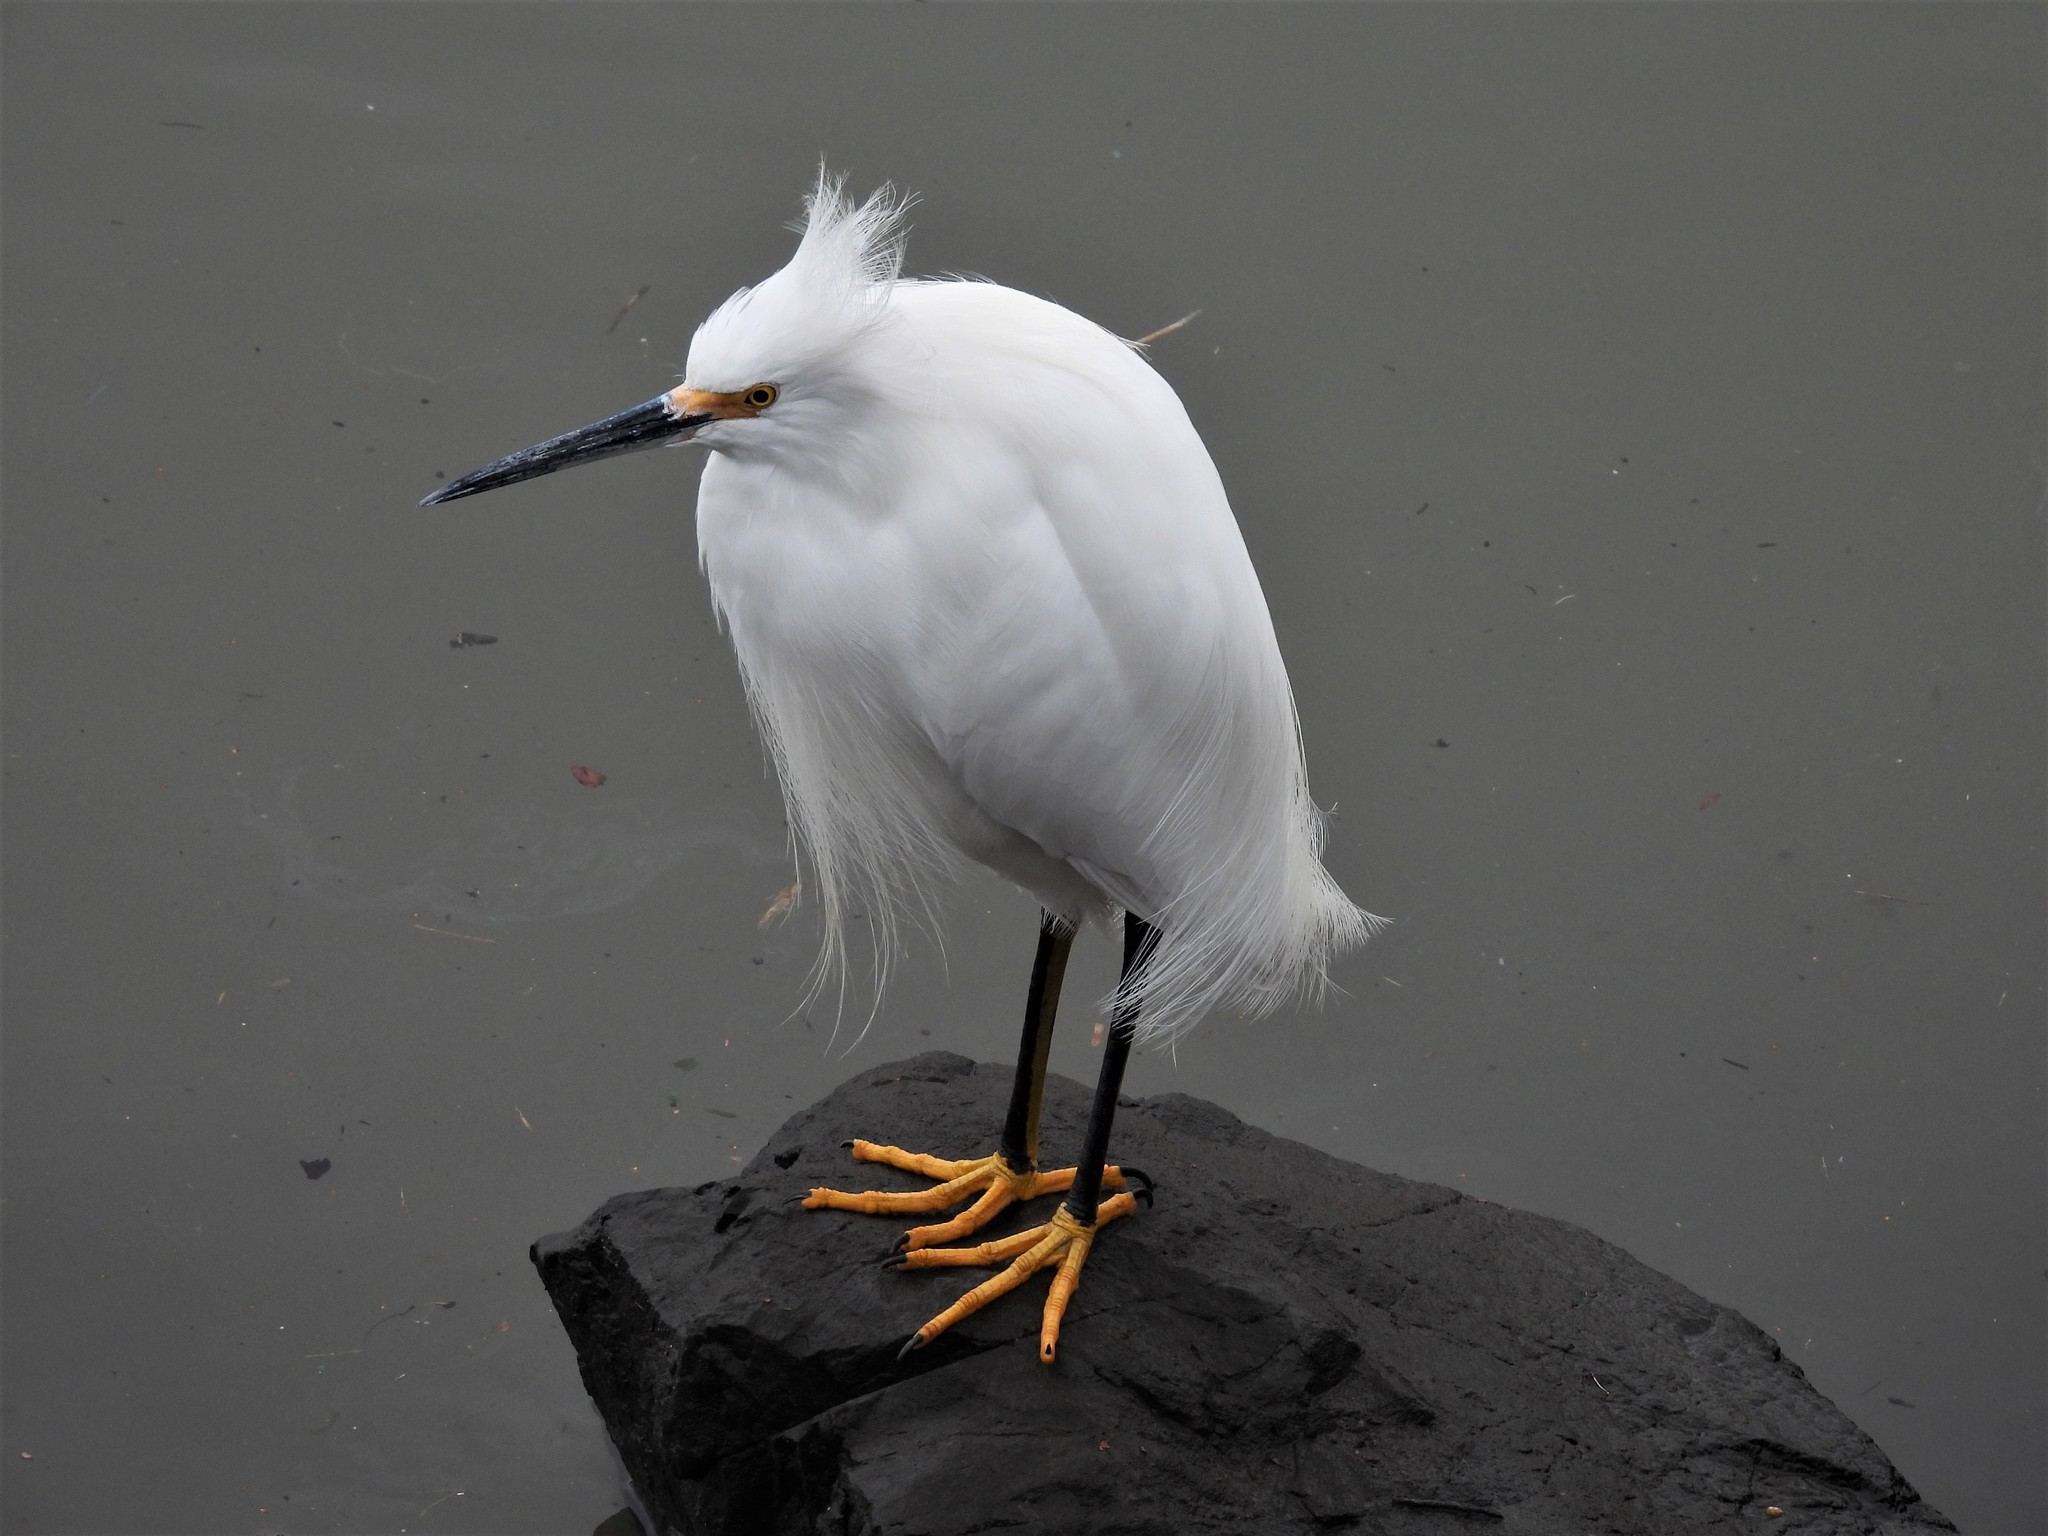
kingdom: Animalia
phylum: Chordata
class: Aves
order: Pelecaniformes
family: Ardeidae
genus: Egretta
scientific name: Egretta thula
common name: Snowy egret
